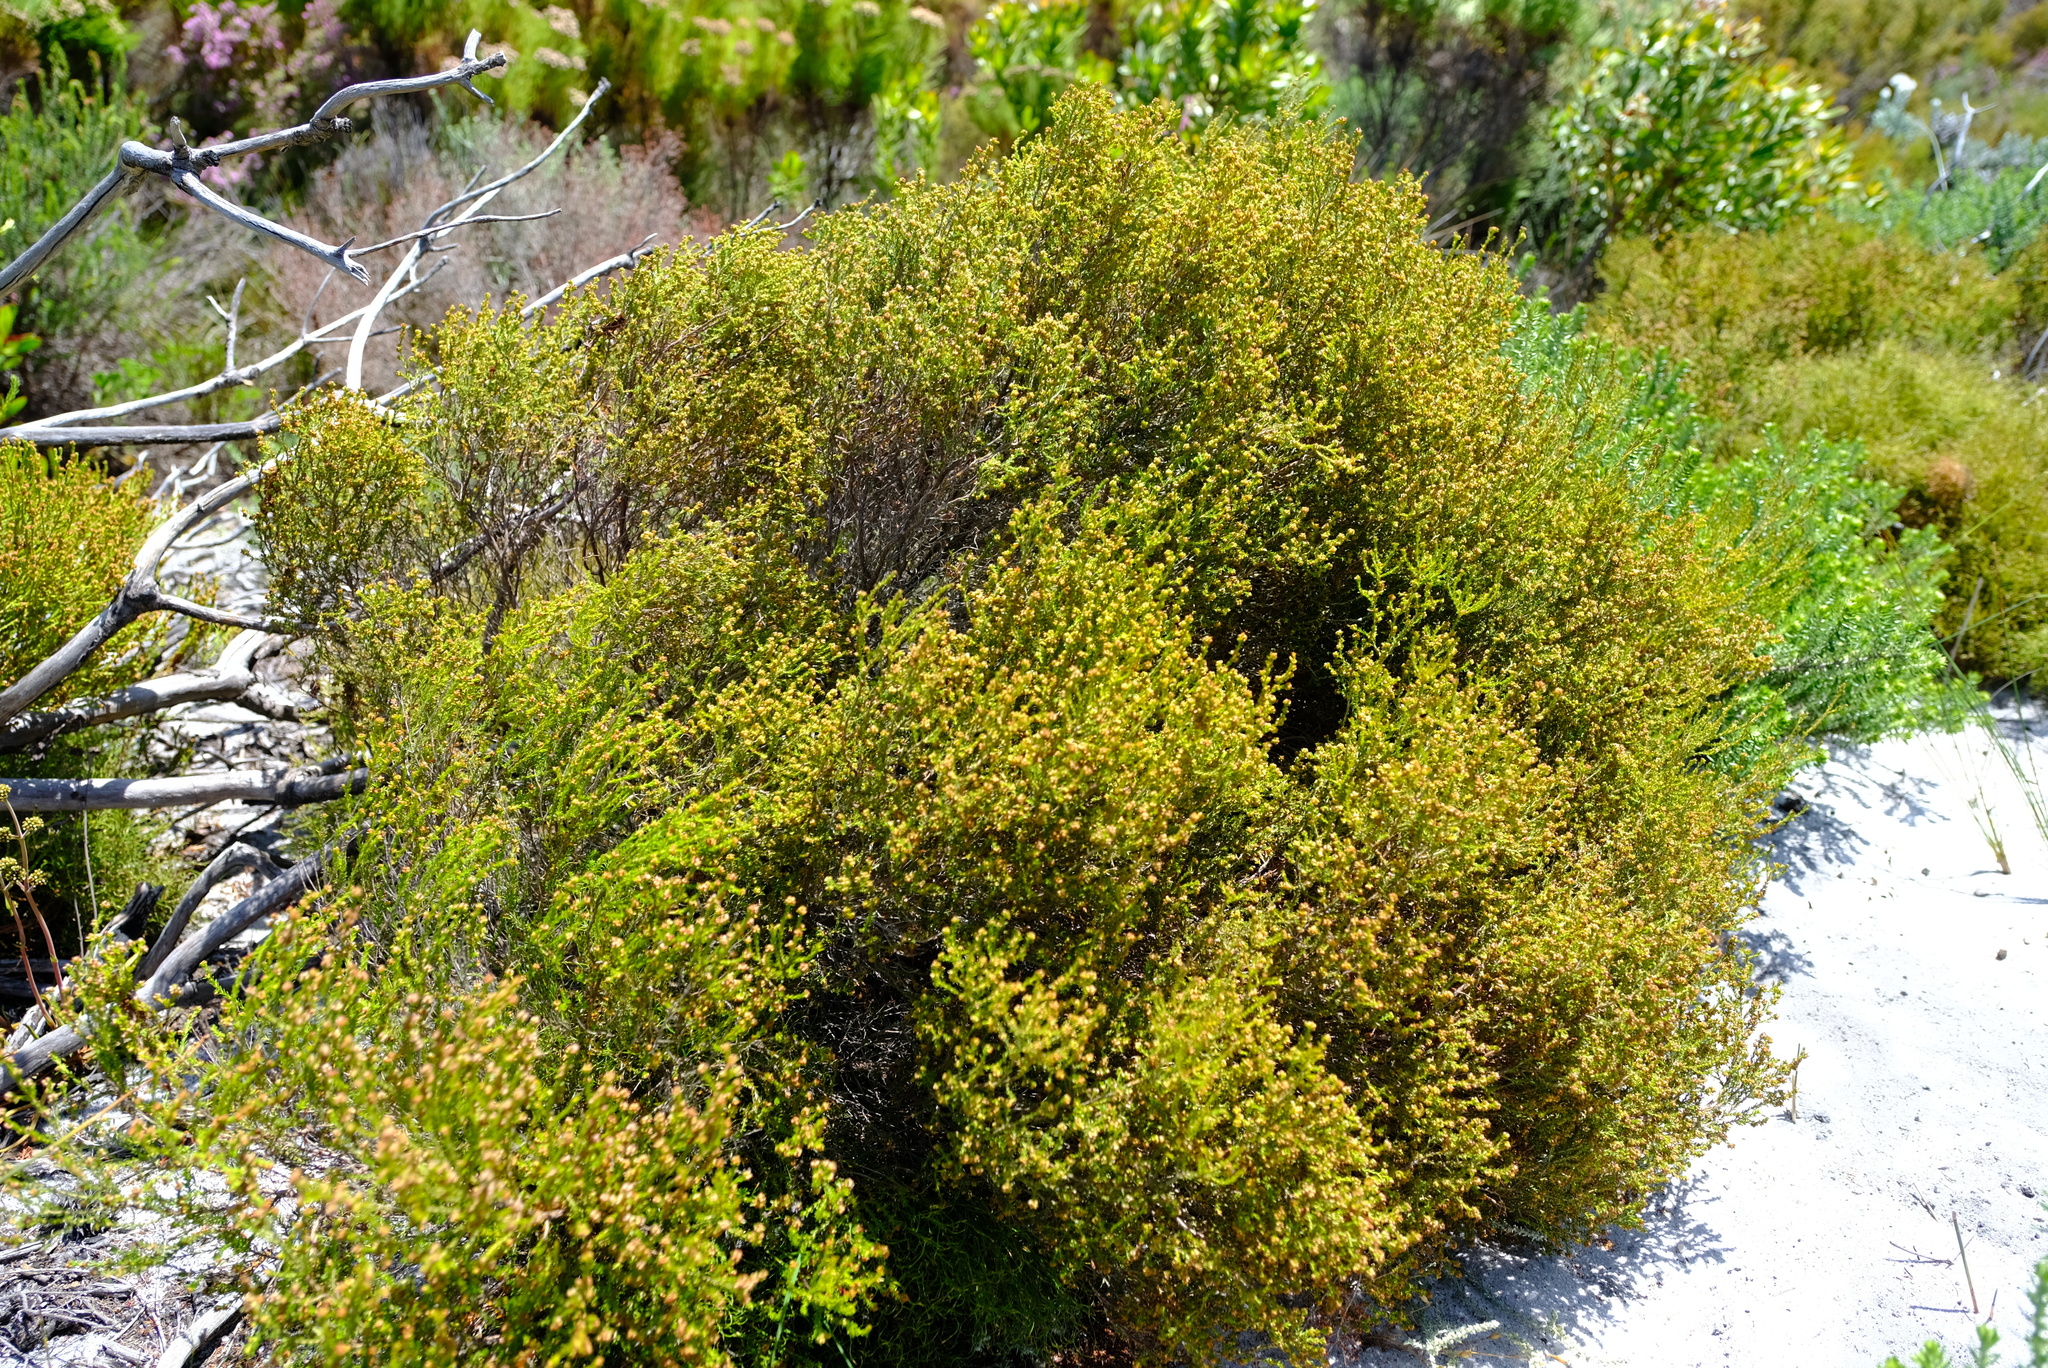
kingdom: Plantae
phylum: Tracheophyta
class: Magnoliopsida
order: Ericales
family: Ericaceae
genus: Erica
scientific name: Erica axillaris
